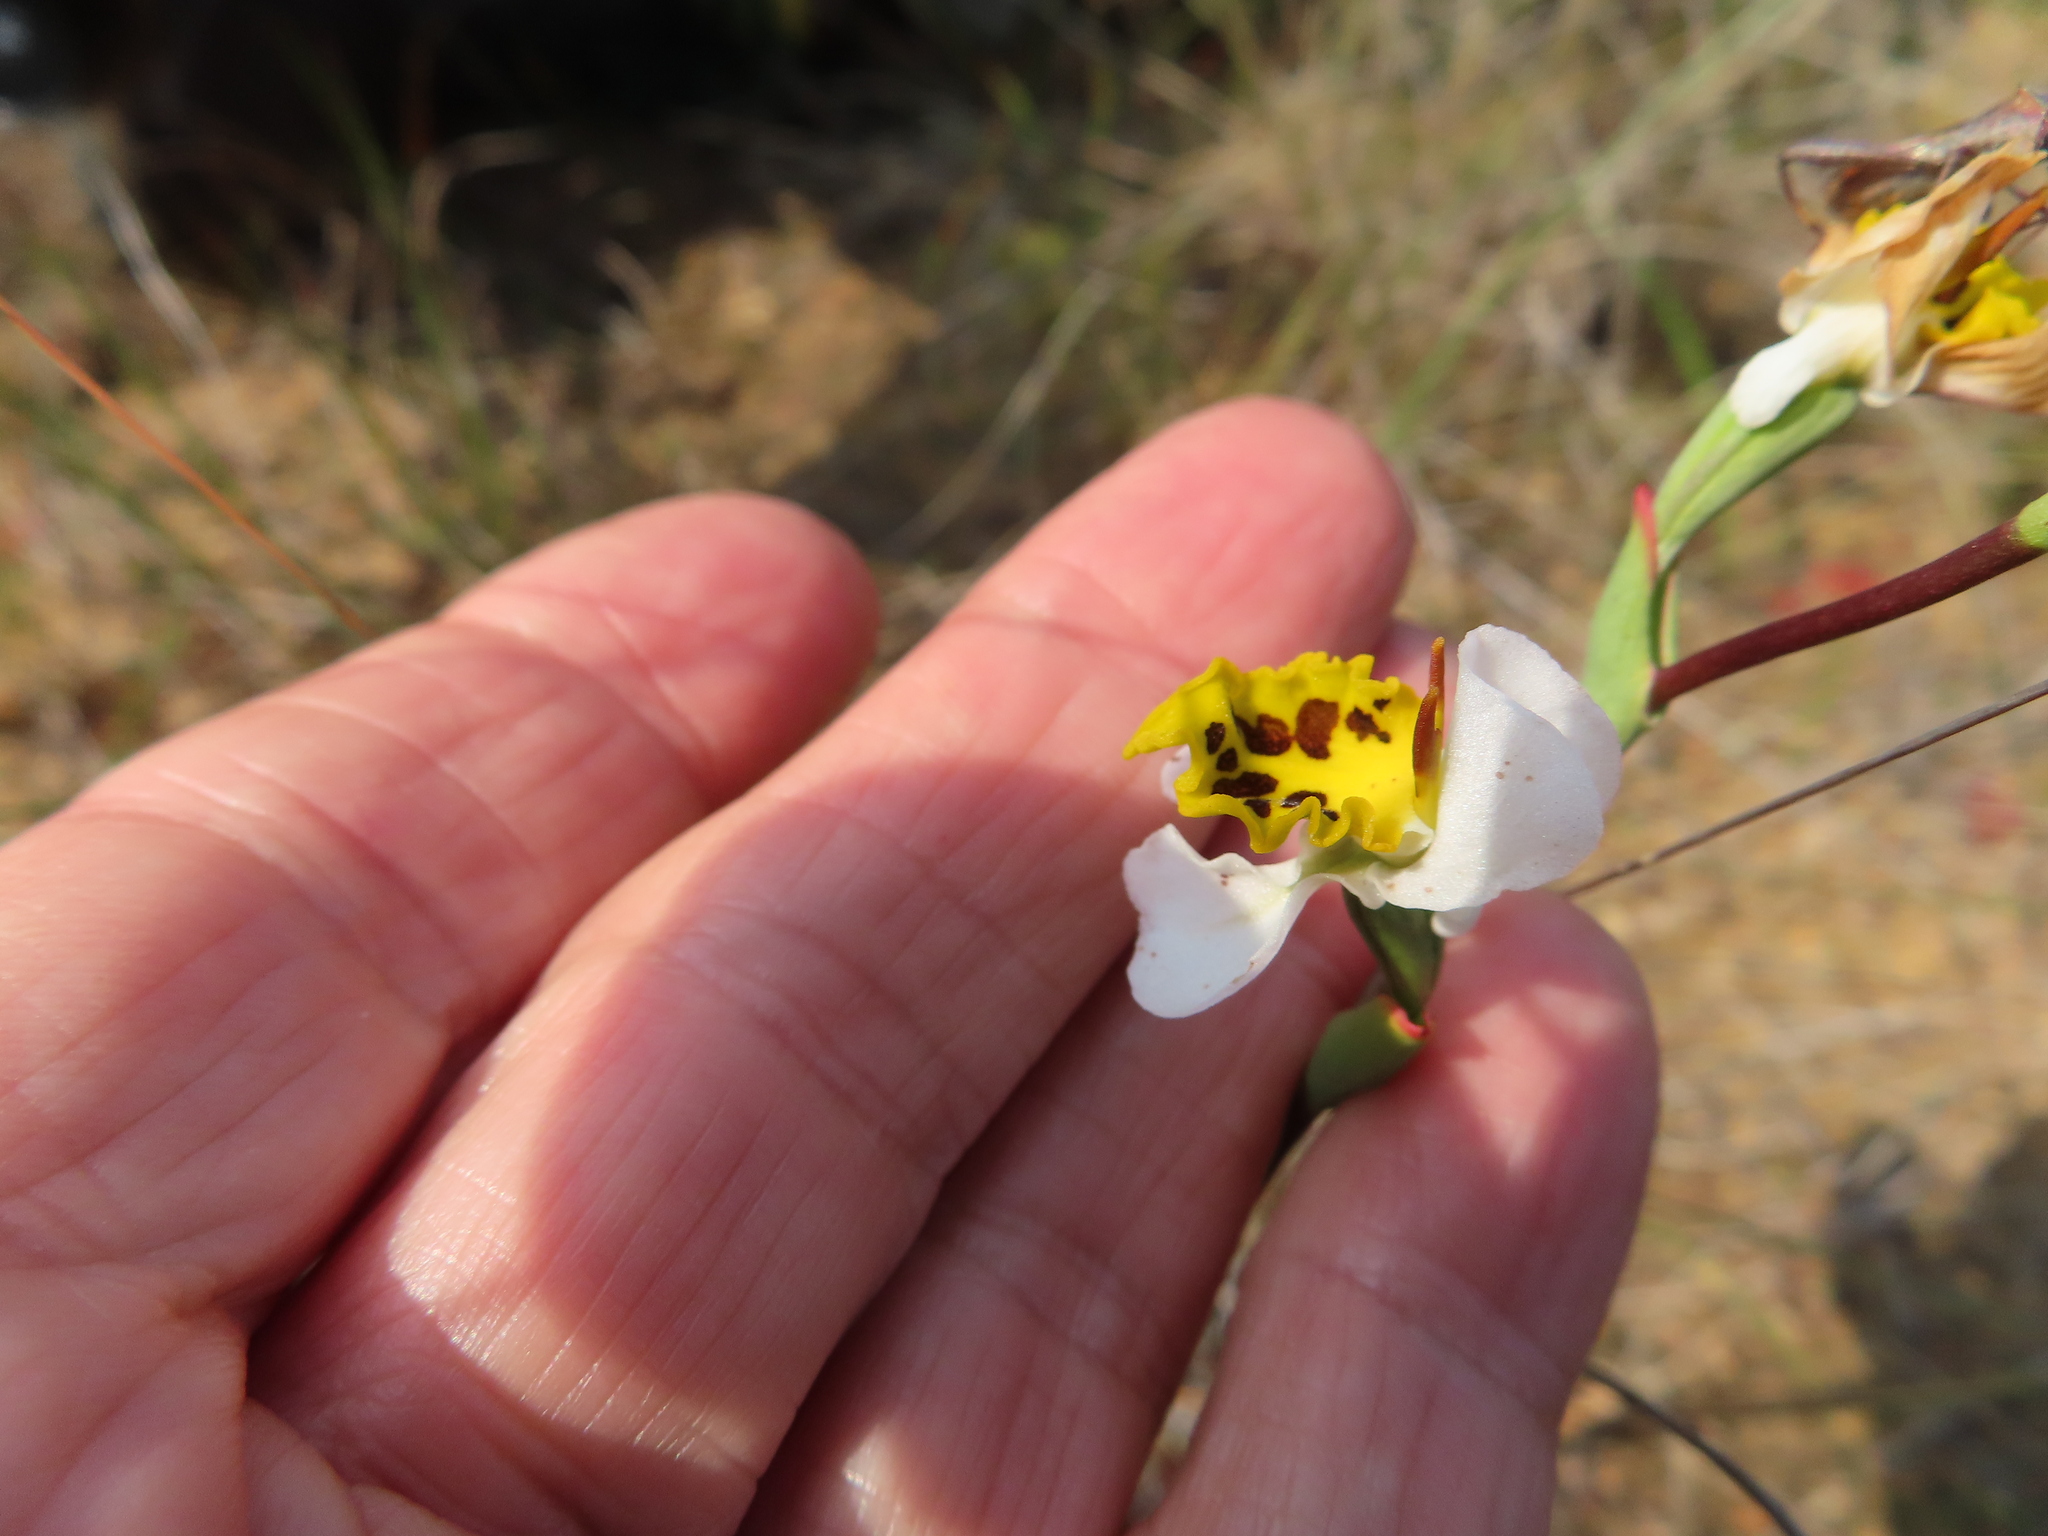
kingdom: Plantae
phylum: Tracheophyta
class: Liliopsida
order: Asparagales
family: Orchidaceae
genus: Disa
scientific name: Disa flexuosa
